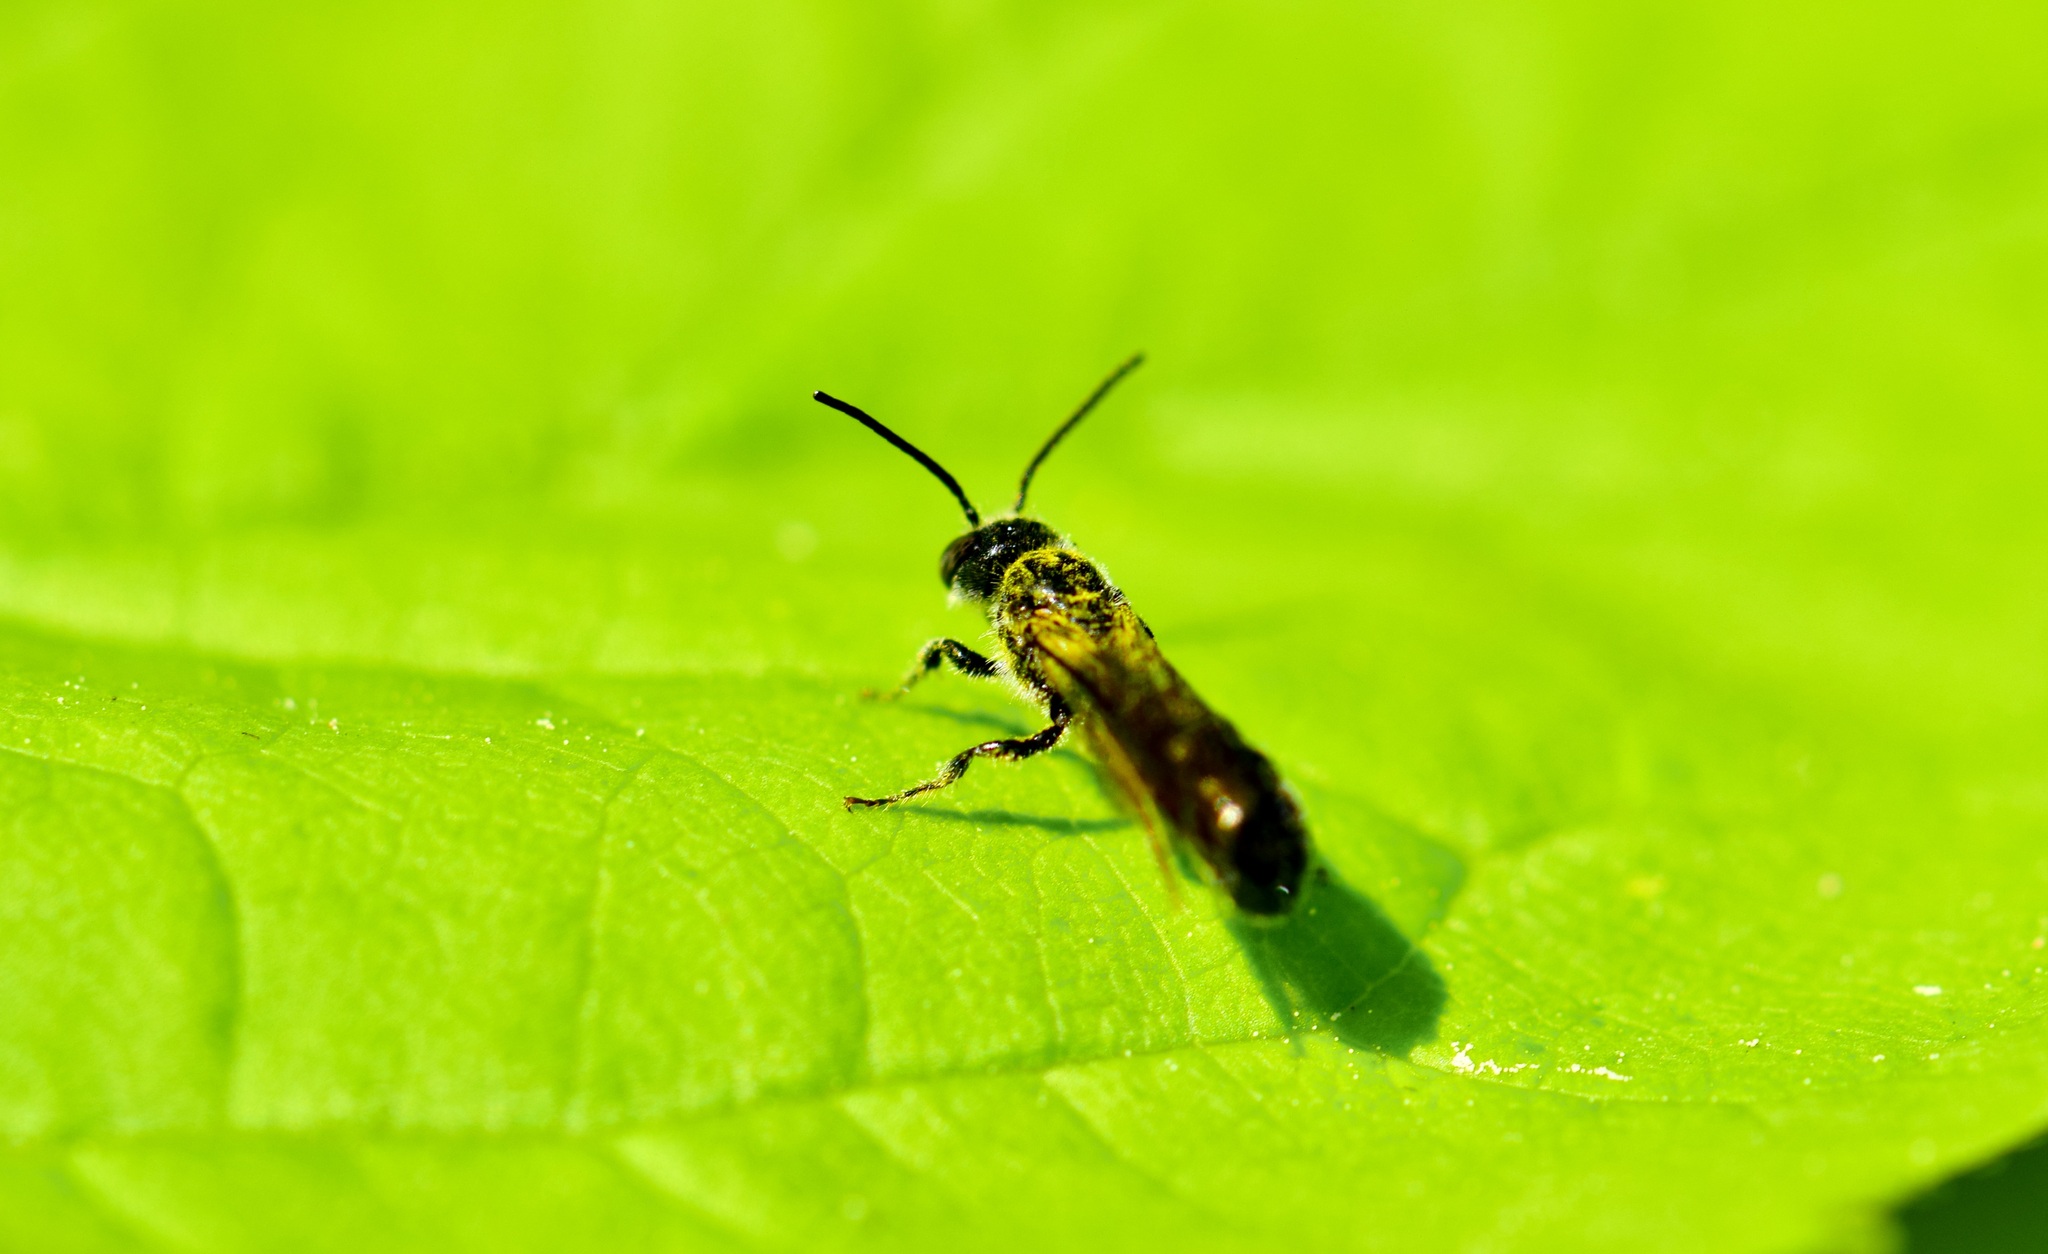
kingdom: Animalia
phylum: Arthropoda
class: Insecta
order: Hymenoptera
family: Megachilidae
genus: Chelostoma
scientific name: Chelostoma philadelphi
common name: Mock-orange scissor bee
